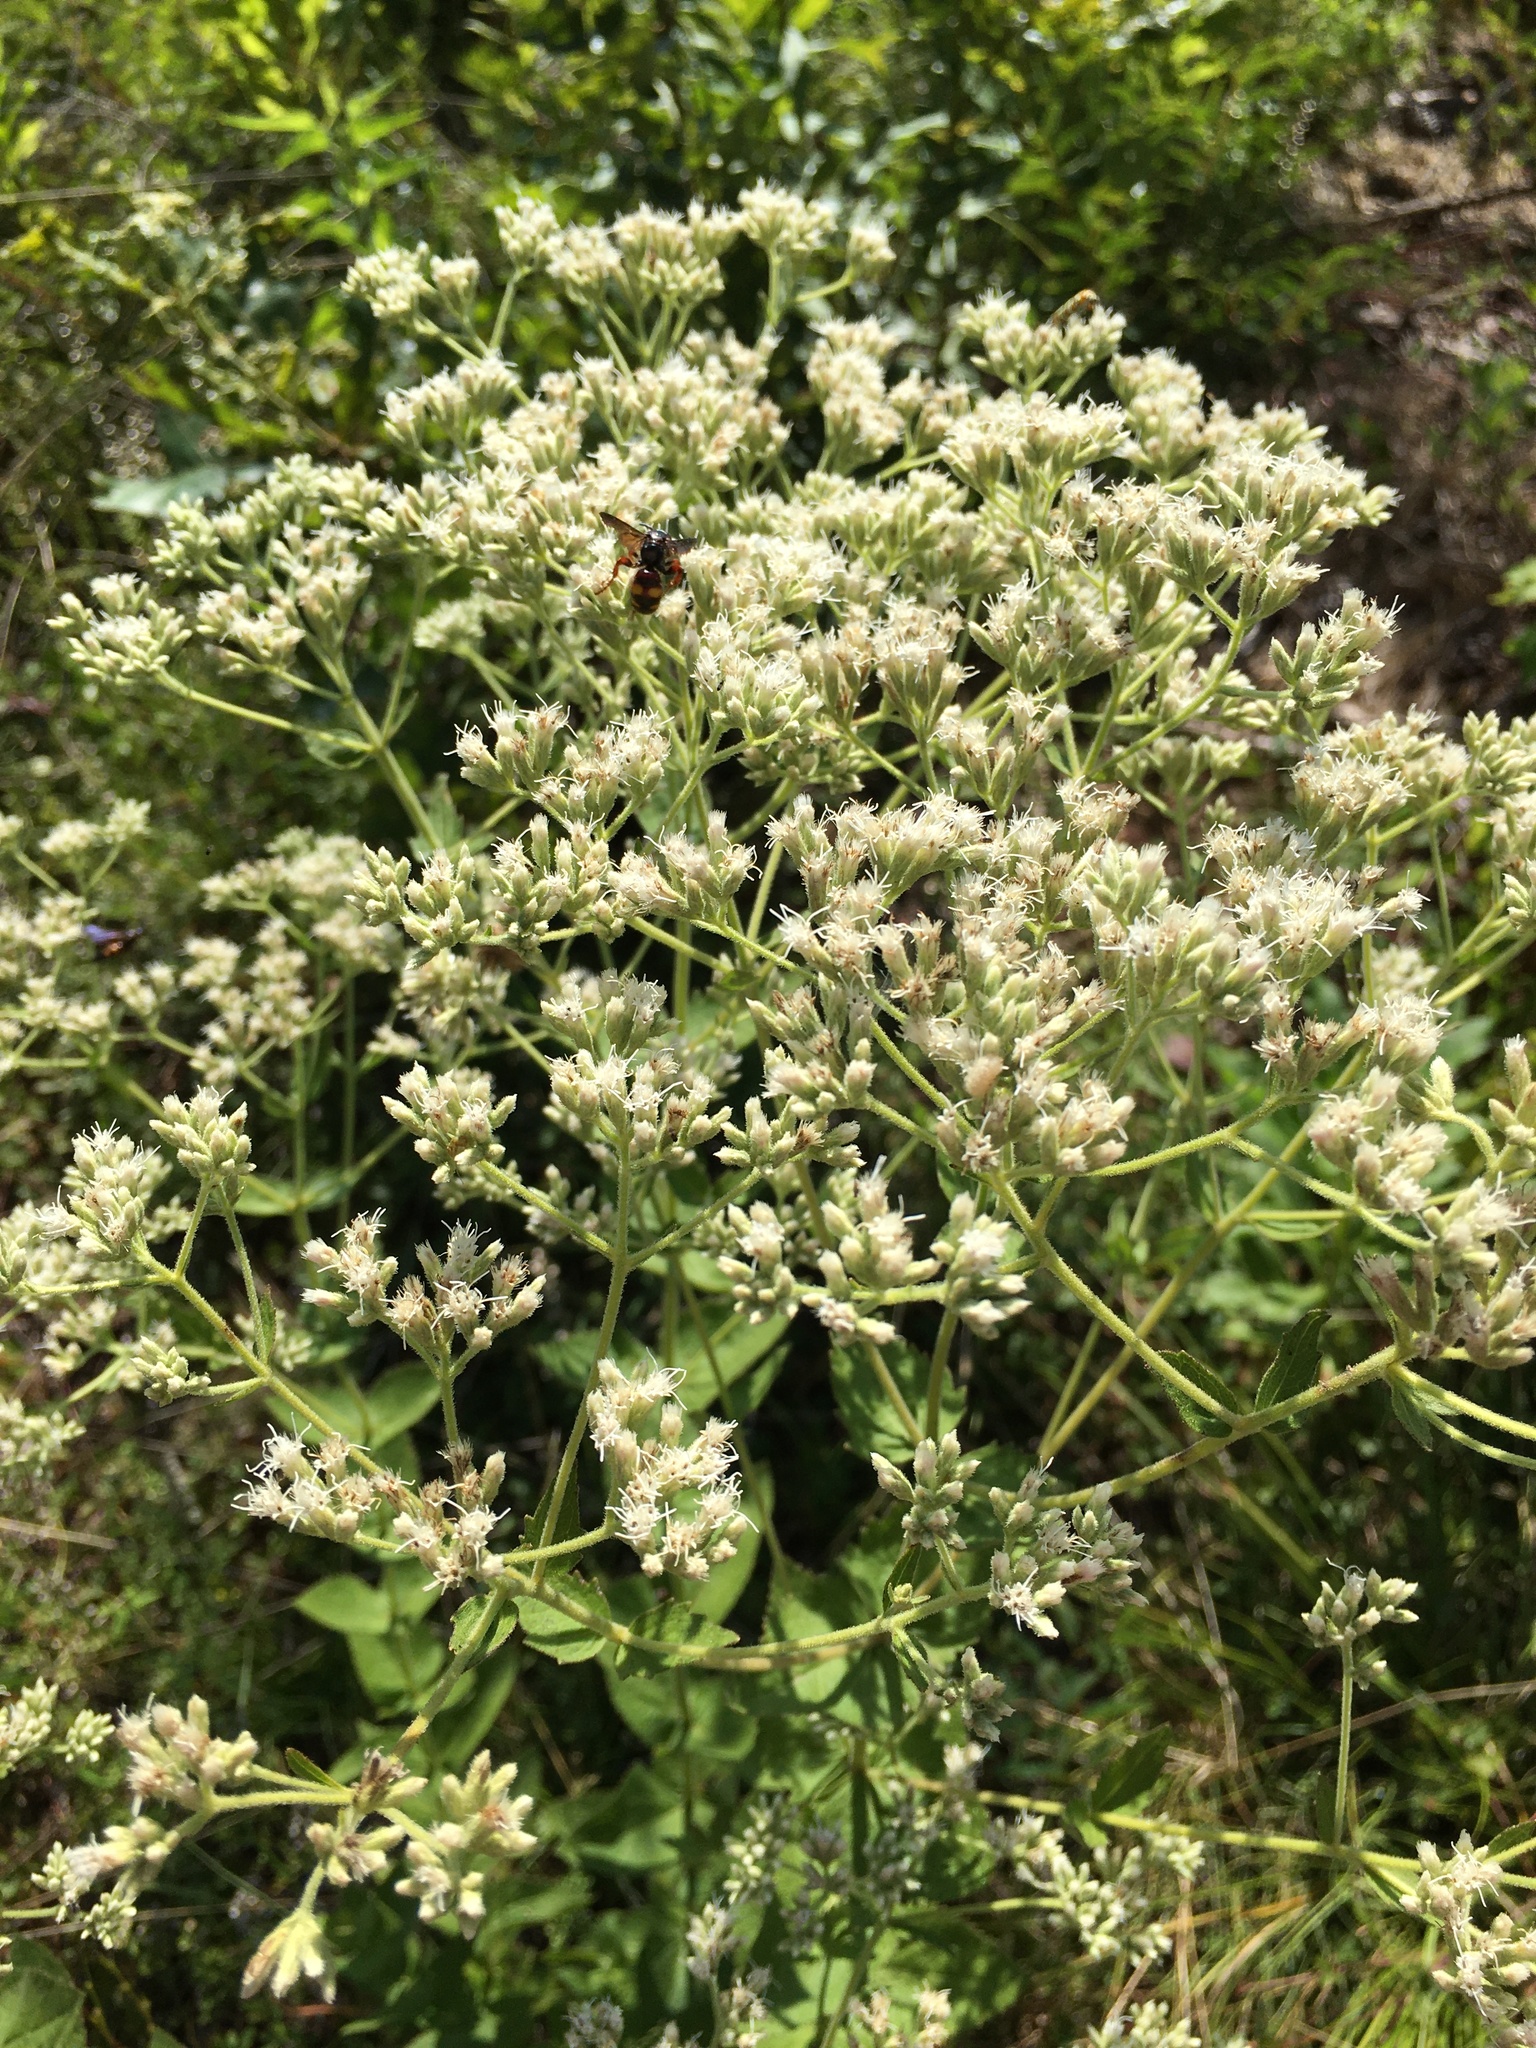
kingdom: Plantae
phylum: Tracheophyta
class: Magnoliopsida
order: Asterales
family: Asteraceae
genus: Eupatorium
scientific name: Eupatorium rotundifolium
